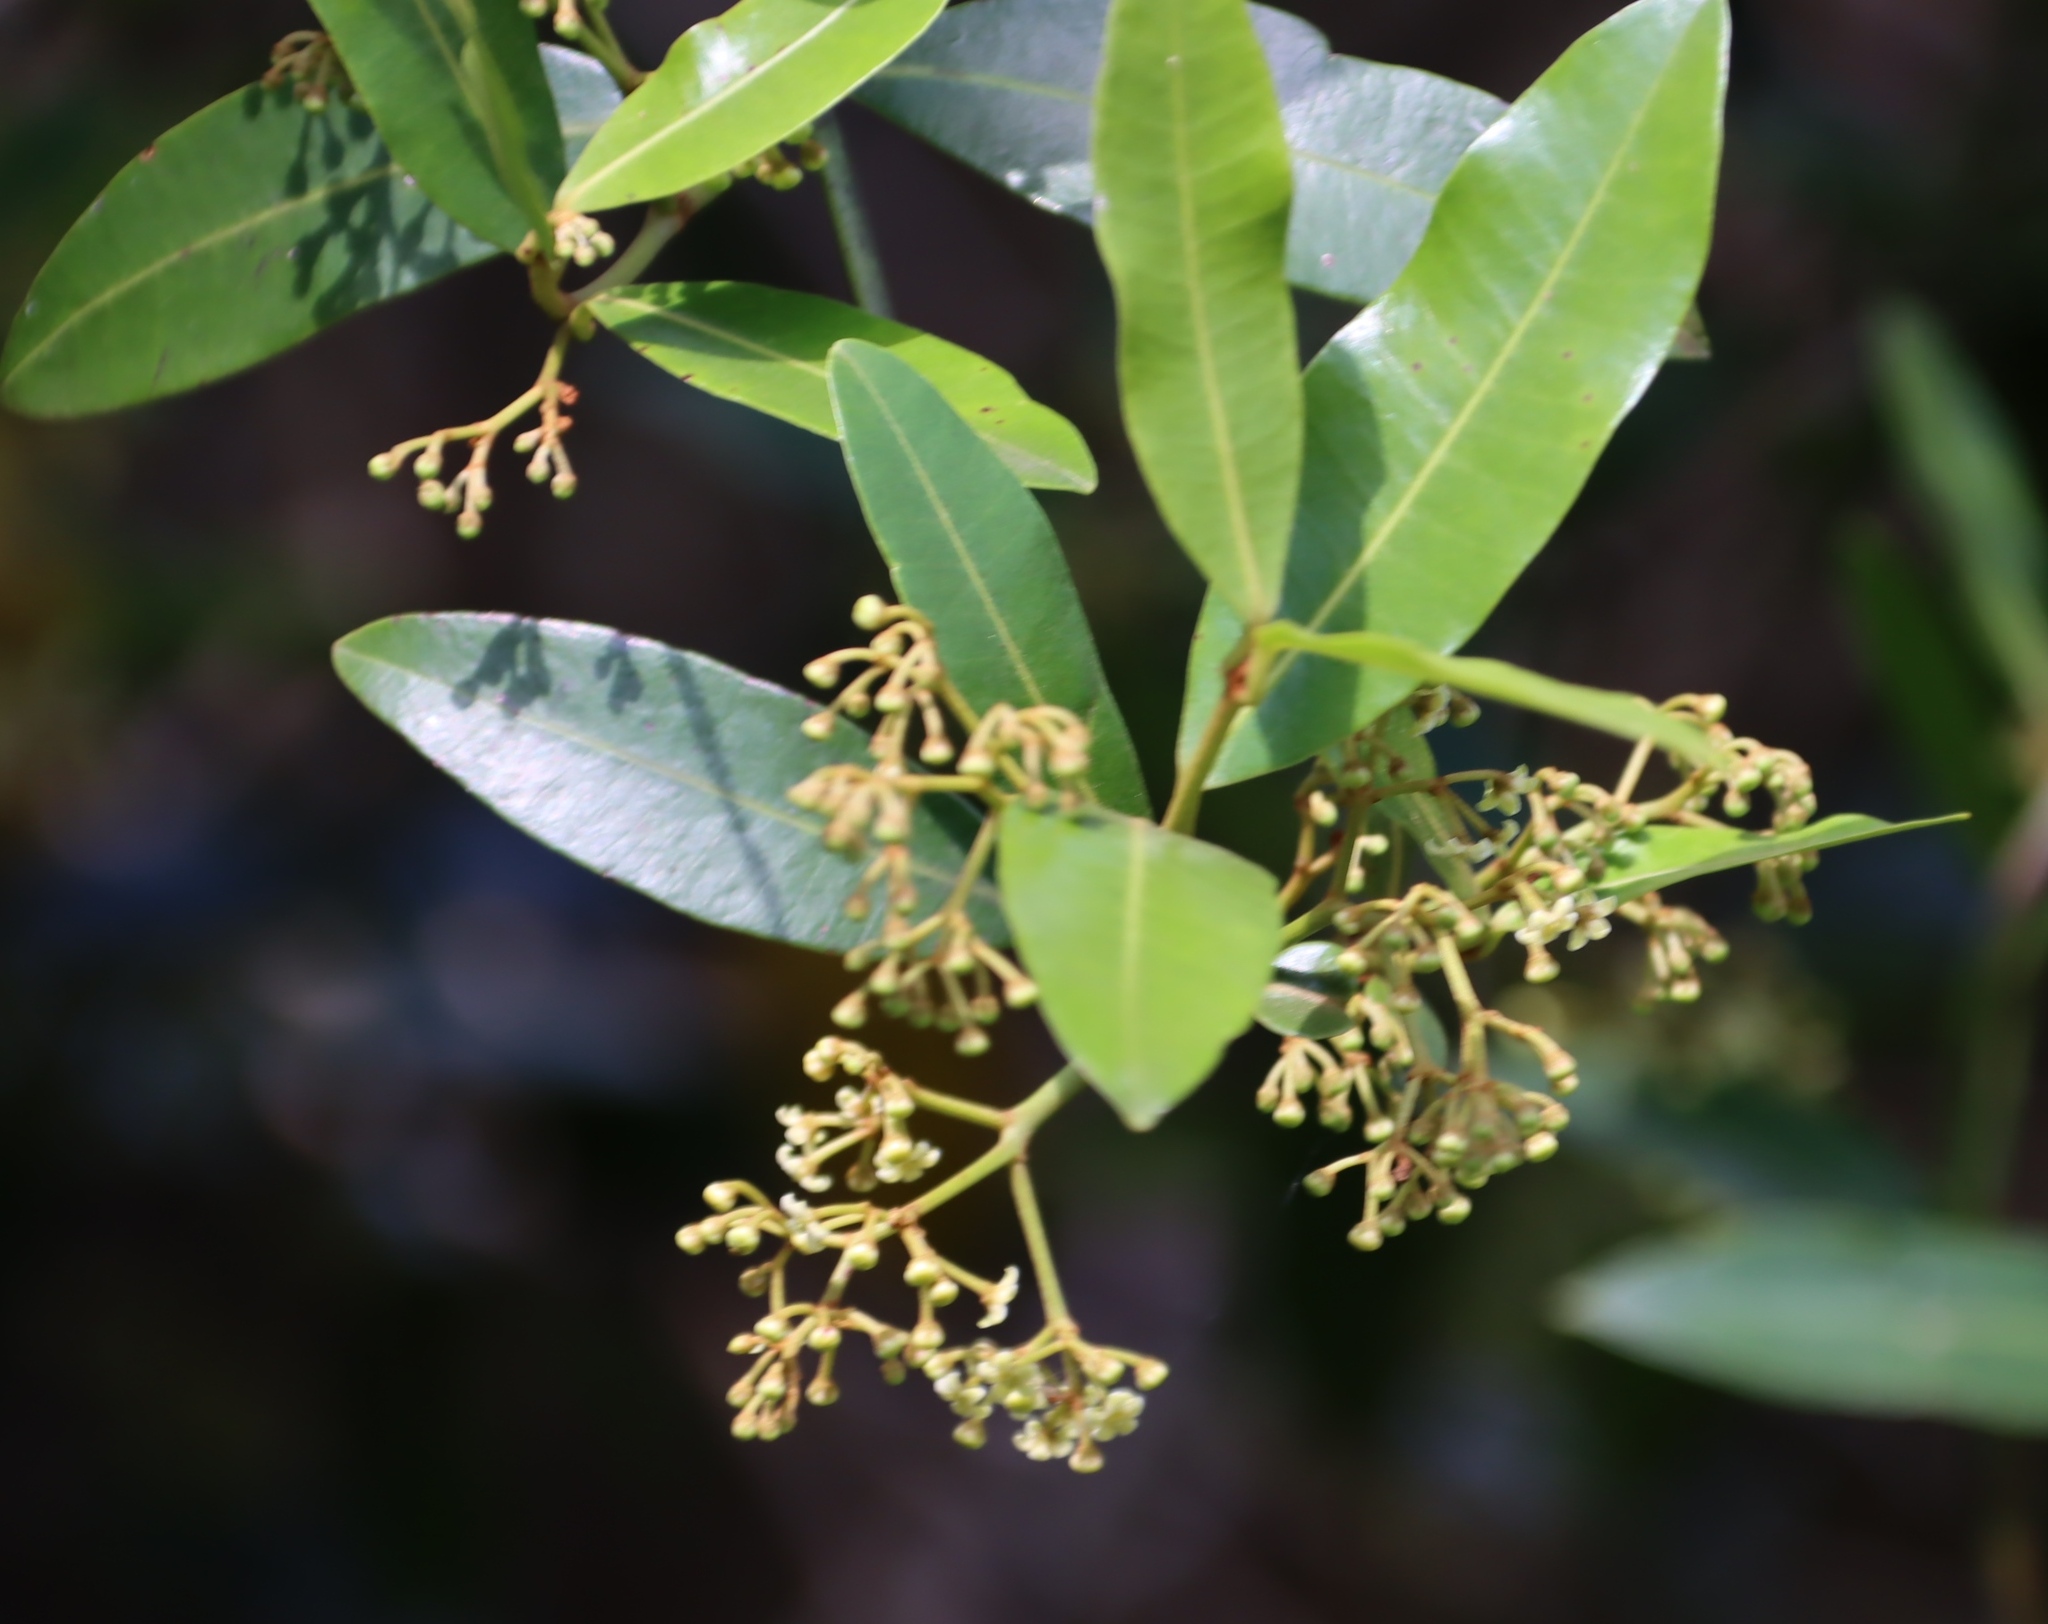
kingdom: Plantae
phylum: Tracheophyta
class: Magnoliopsida
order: Gentianales
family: Apocynaceae
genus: Secamone
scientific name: Secamone alpini
